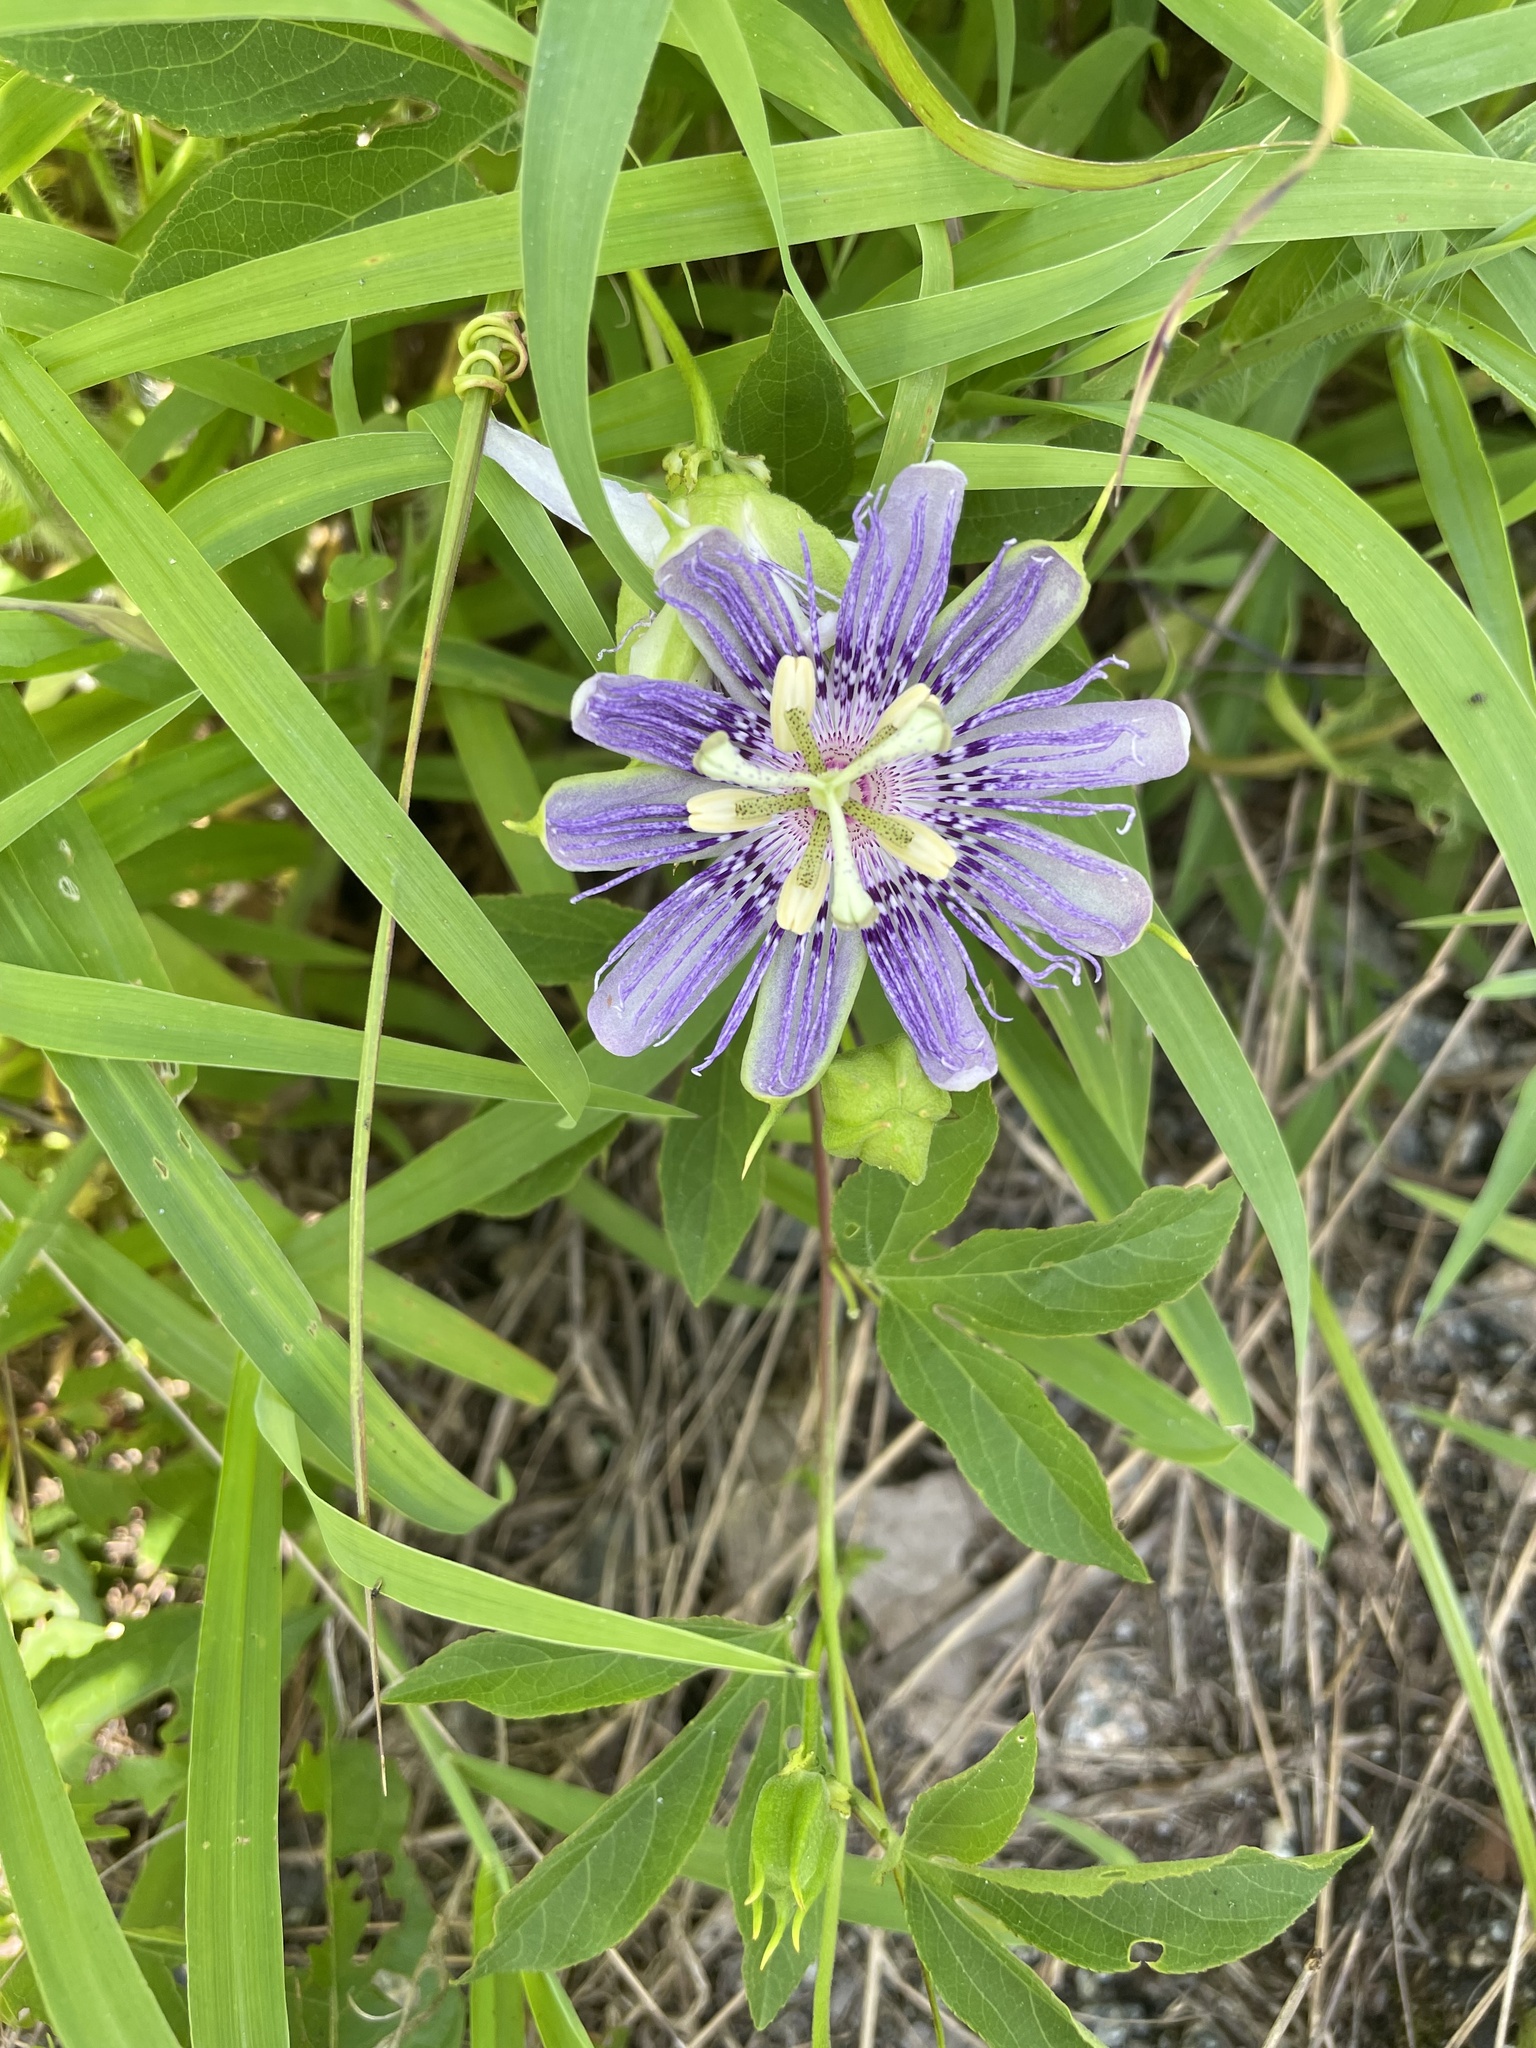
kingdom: Plantae
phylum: Tracheophyta
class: Magnoliopsida
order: Malpighiales
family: Passifloraceae
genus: Passiflora
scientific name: Passiflora incarnata
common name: Apricot-vine
